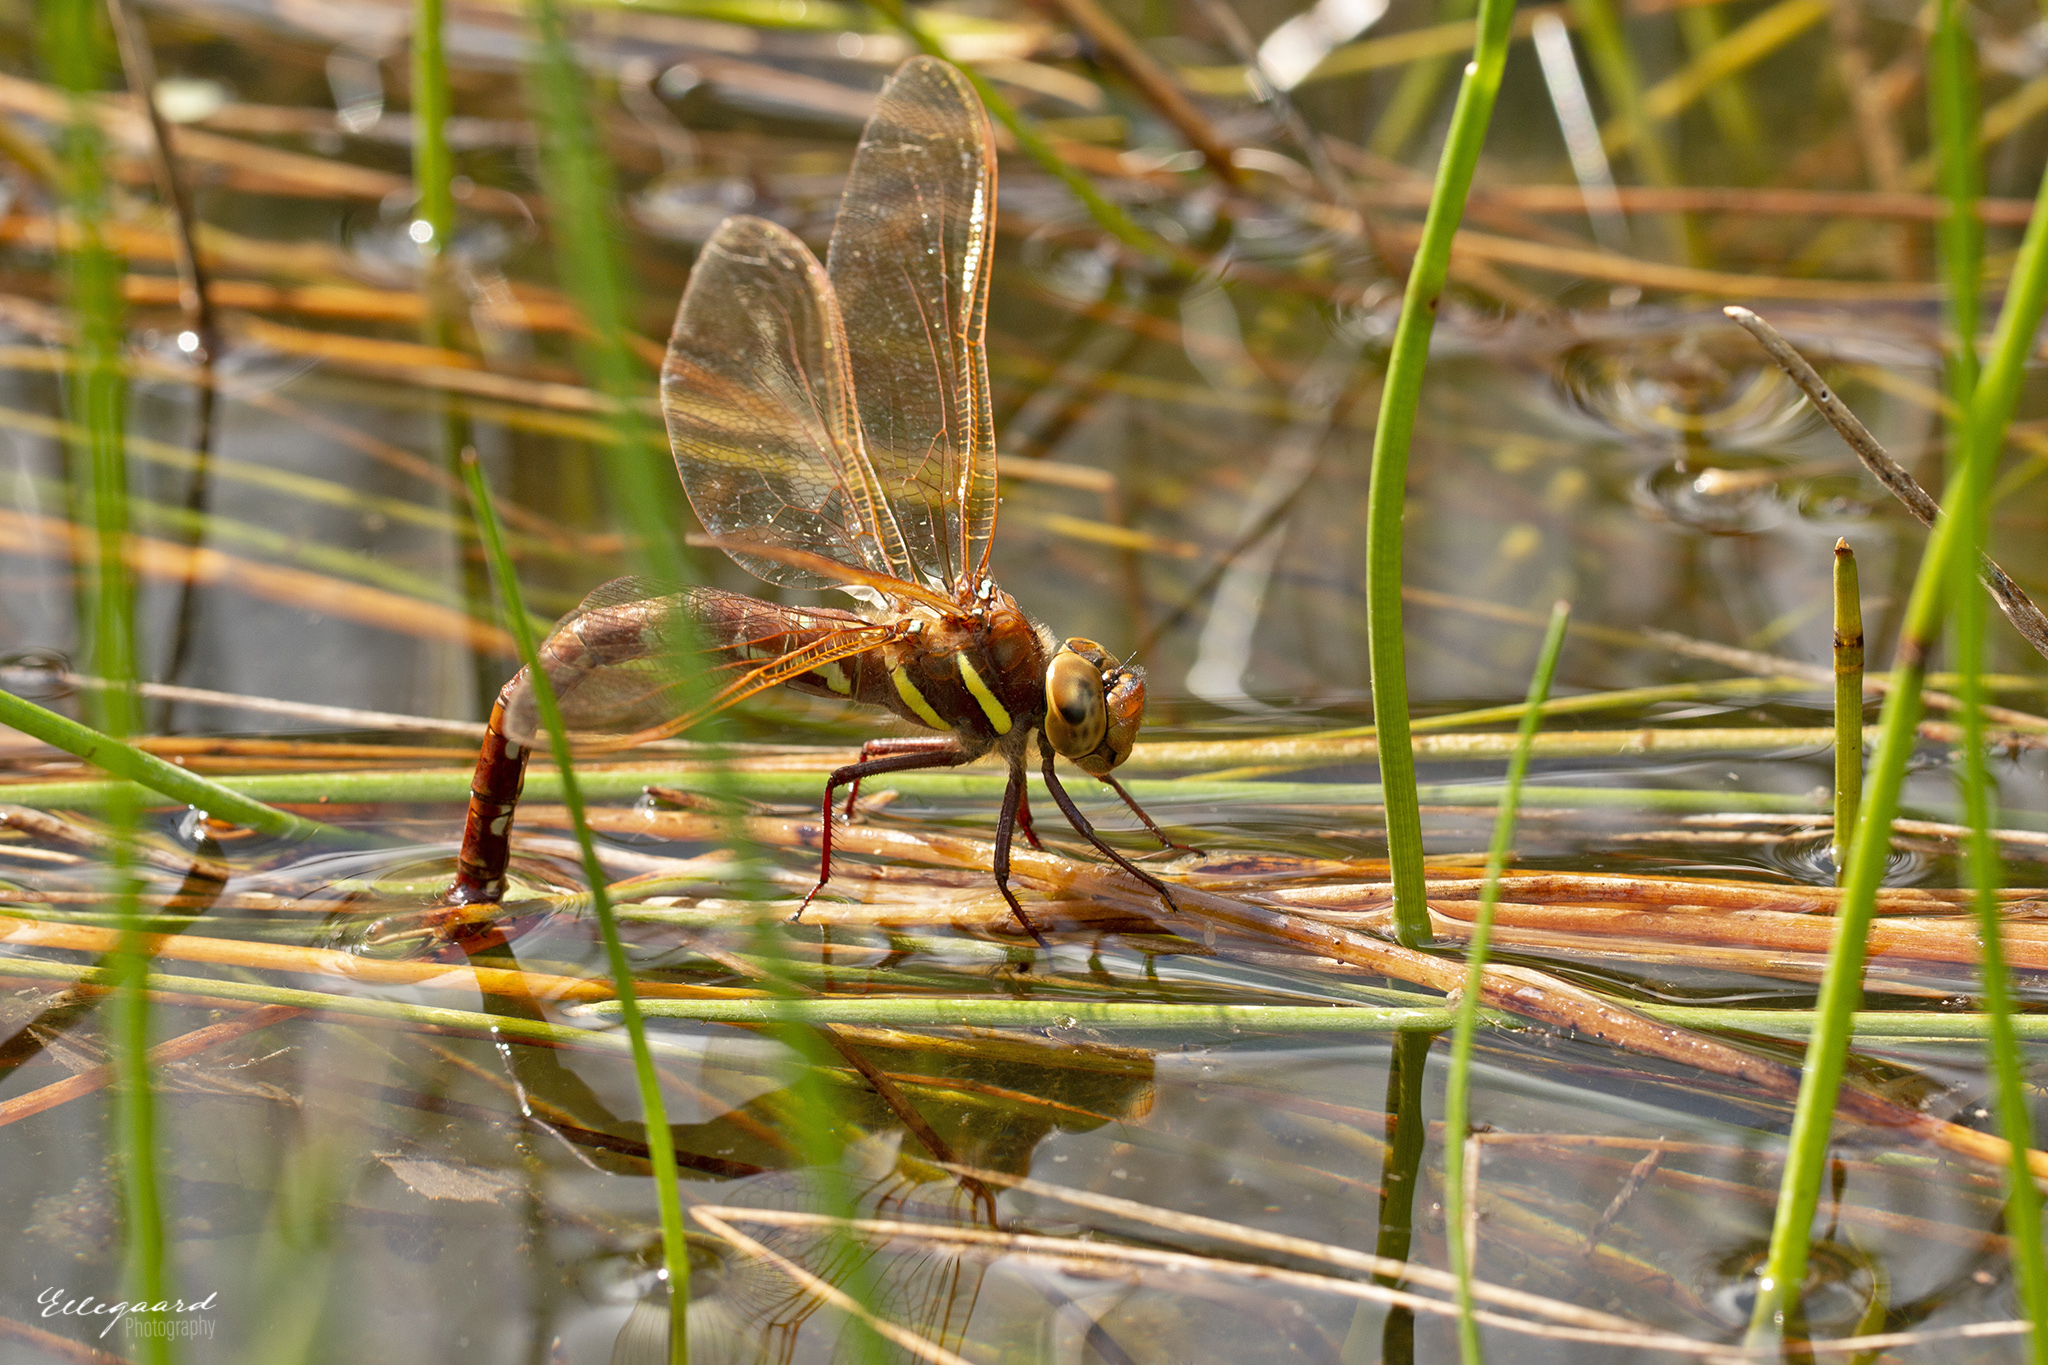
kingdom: Animalia
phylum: Arthropoda
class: Insecta
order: Odonata
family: Aeshnidae
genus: Aeshna
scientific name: Aeshna grandis
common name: Brown hawker
